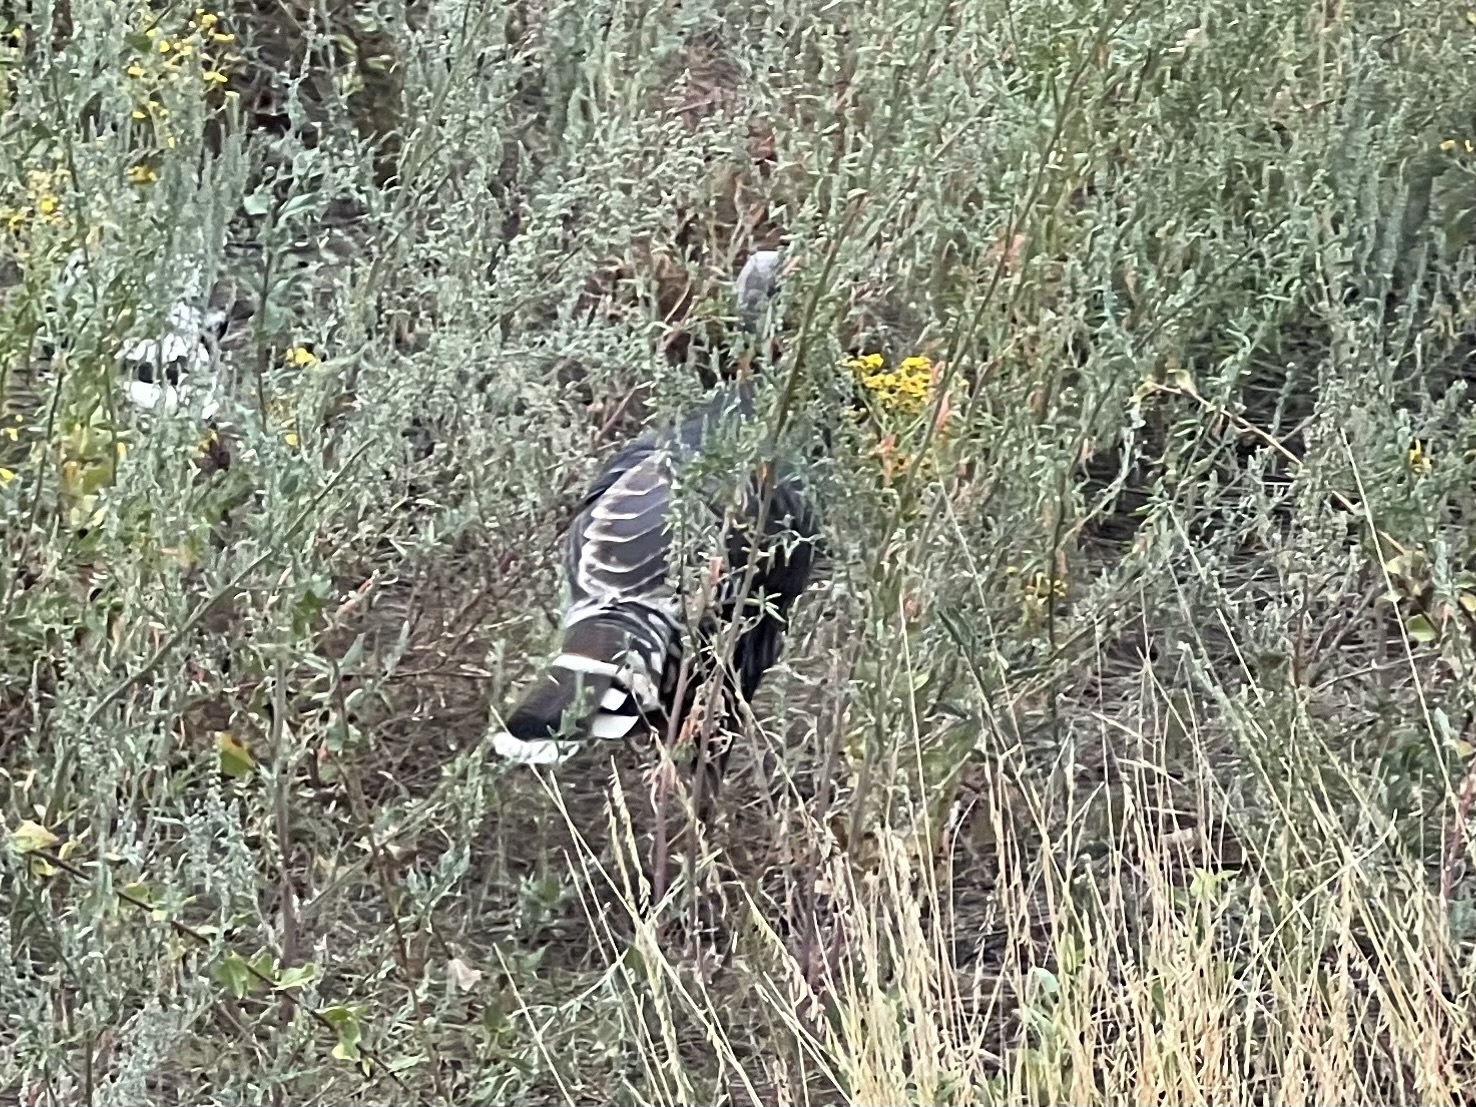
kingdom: Animalia
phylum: Chordata
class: Aves
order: Galliformes
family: Phasianidae
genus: Meleagris
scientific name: Meleagris gallopavo
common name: Wild turkey
